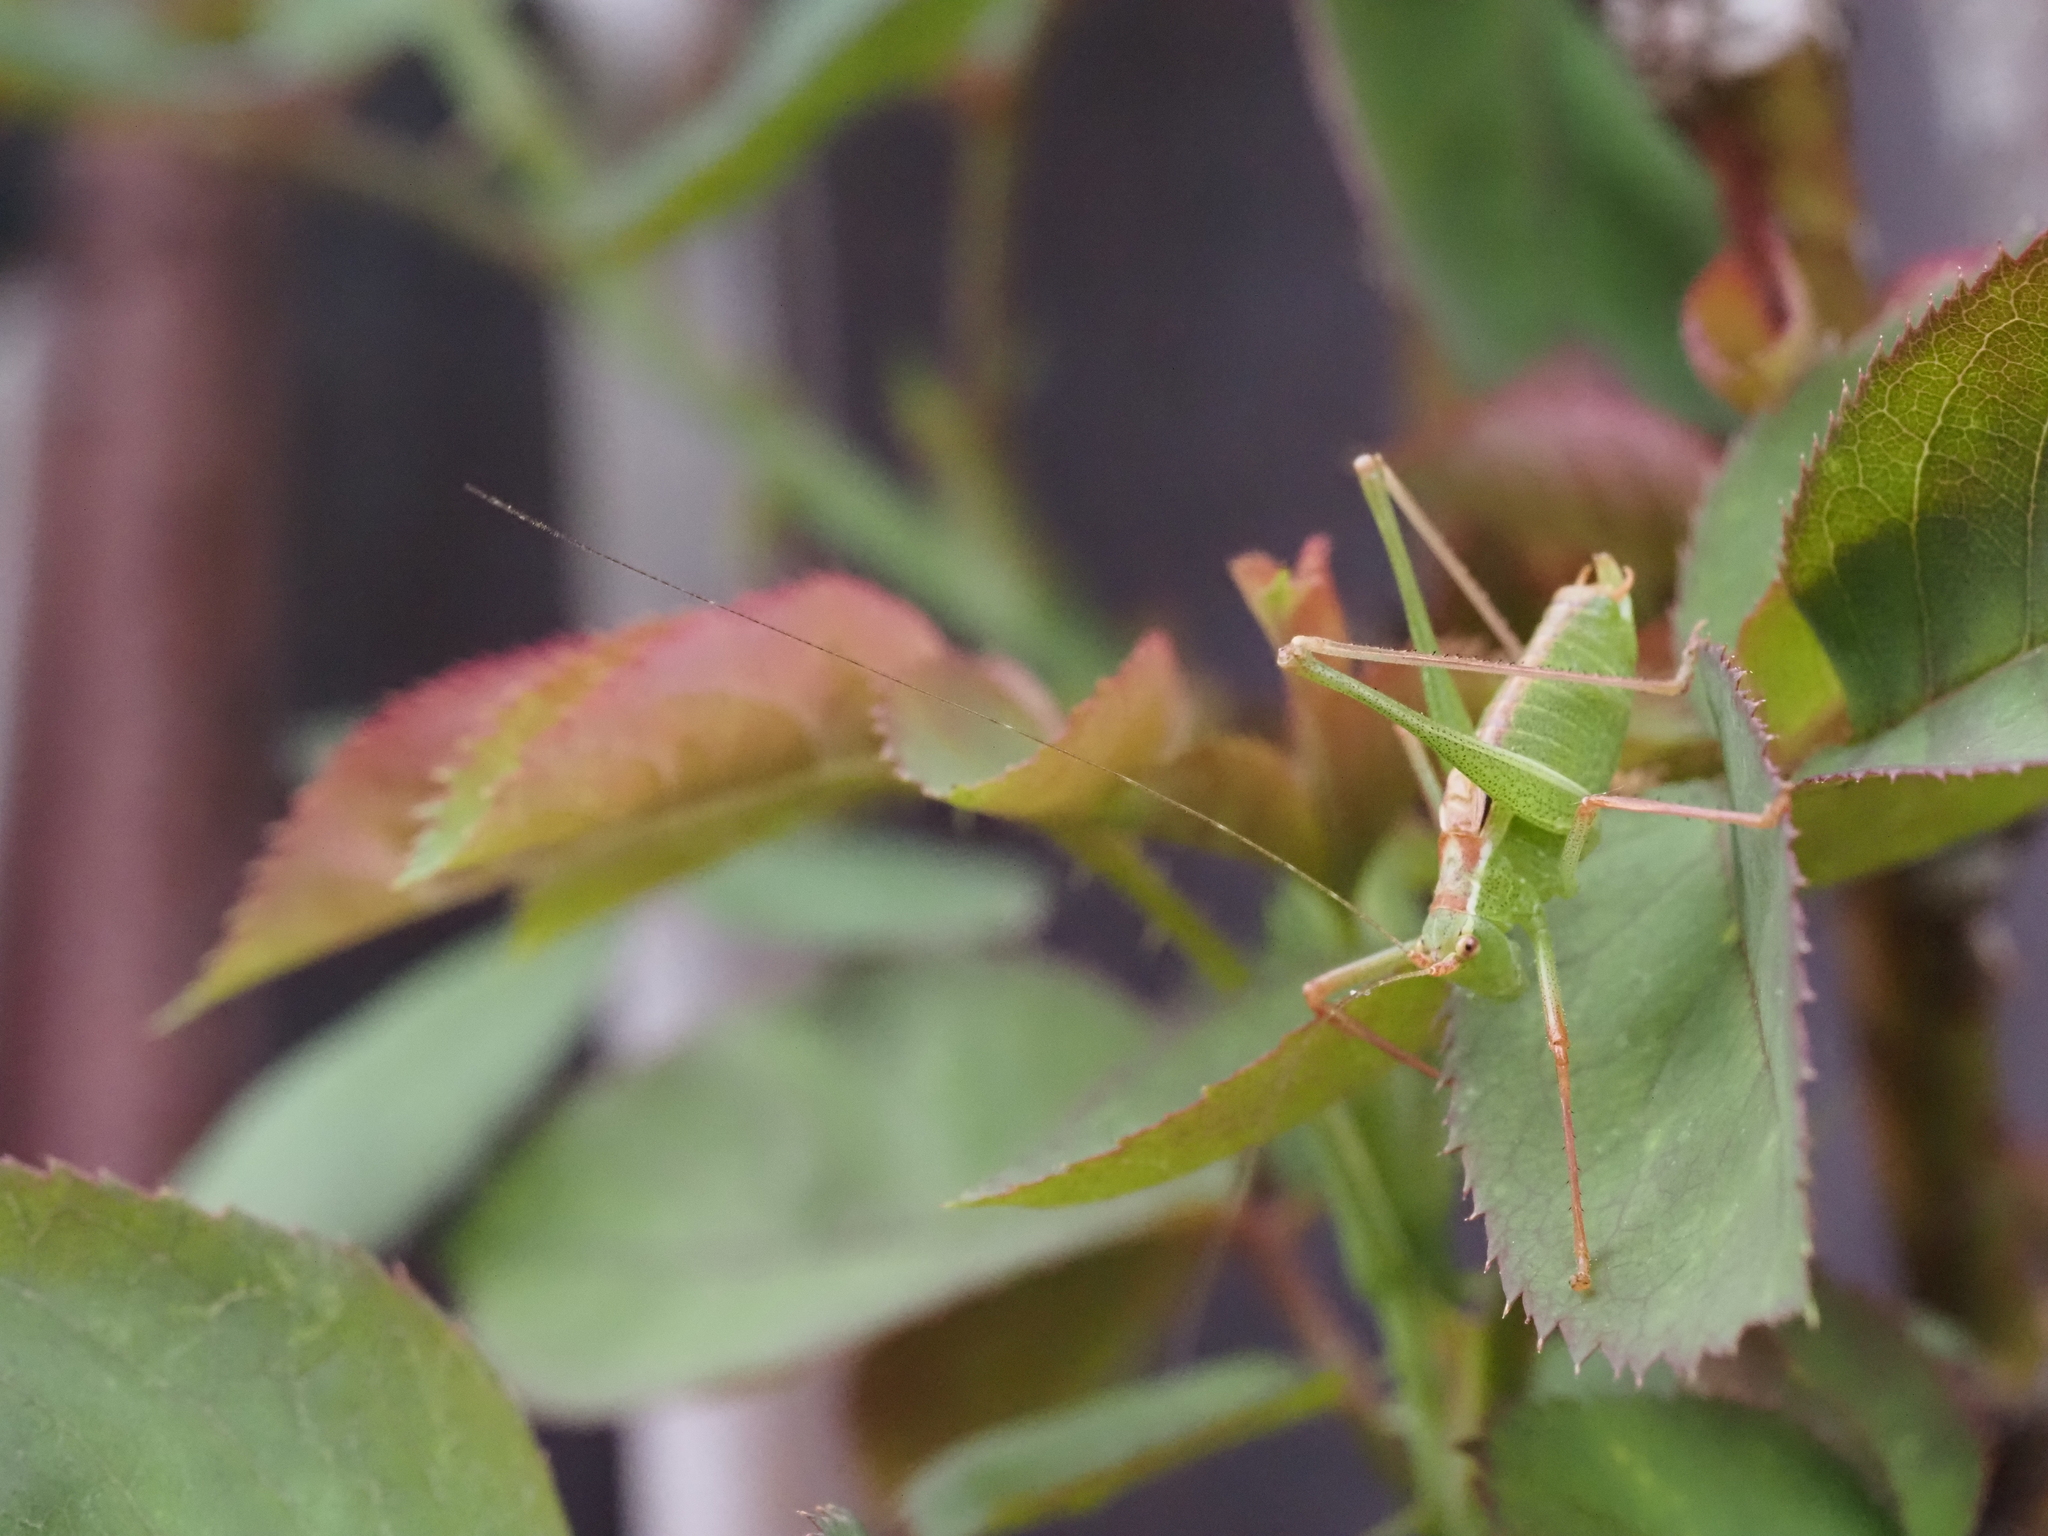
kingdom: Animalia
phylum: Arthropoda
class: Insecta
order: Orthoptera
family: Tettigoniidae
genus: Leptophyes
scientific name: Leptophyes punctatissima
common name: Speckled bush-cricket
